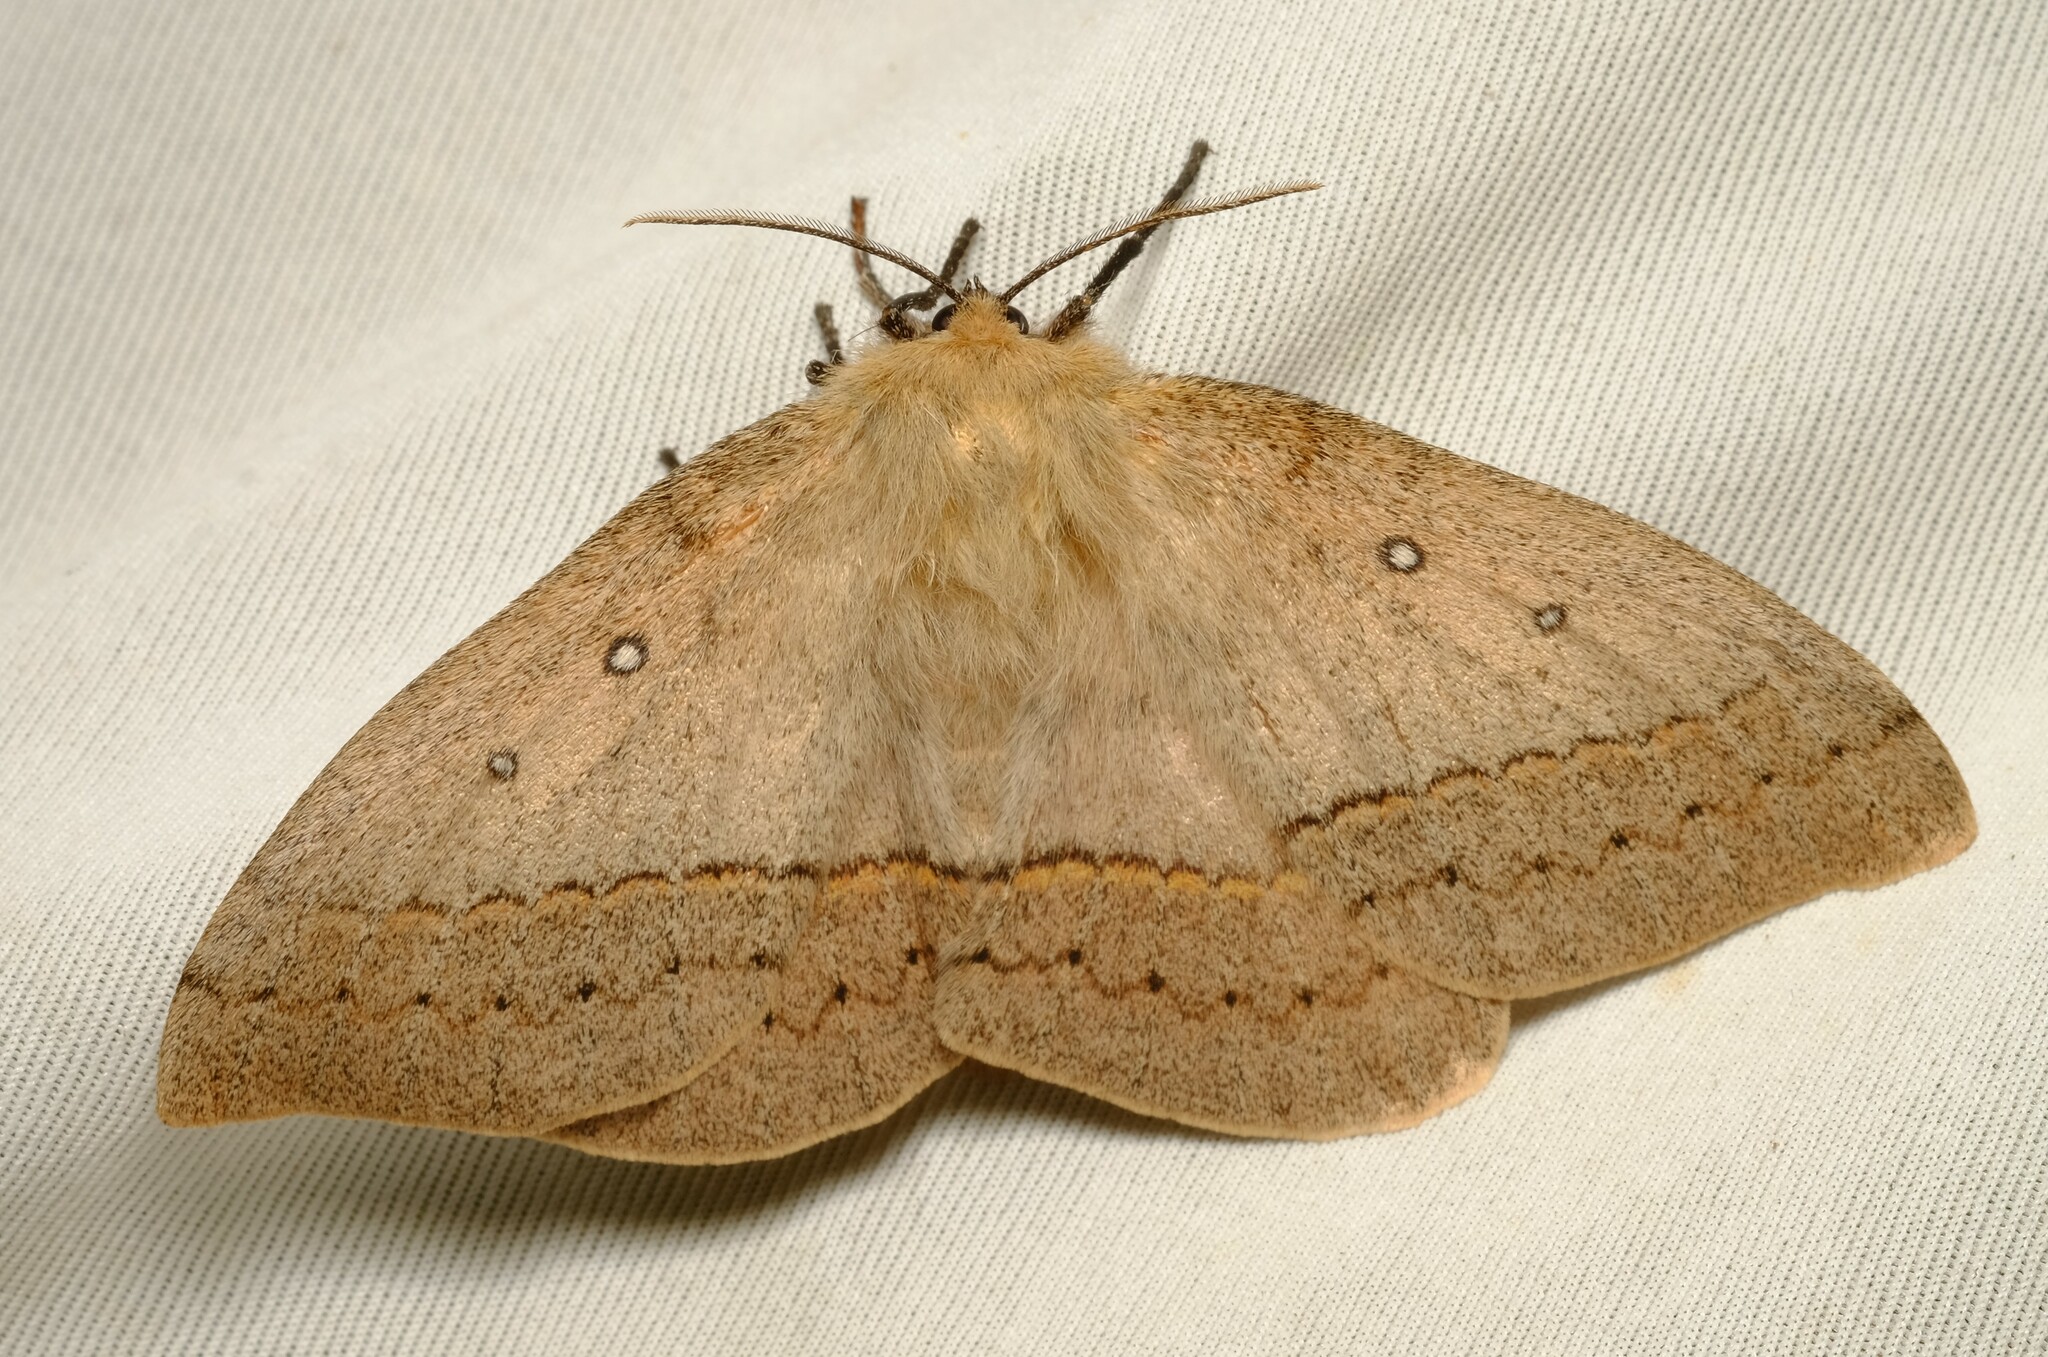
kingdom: Animalia
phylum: Arthropoda
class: Insecta
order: Lepidoptera
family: Anthelidae
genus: Anthela
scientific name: Anthela nicothoe
